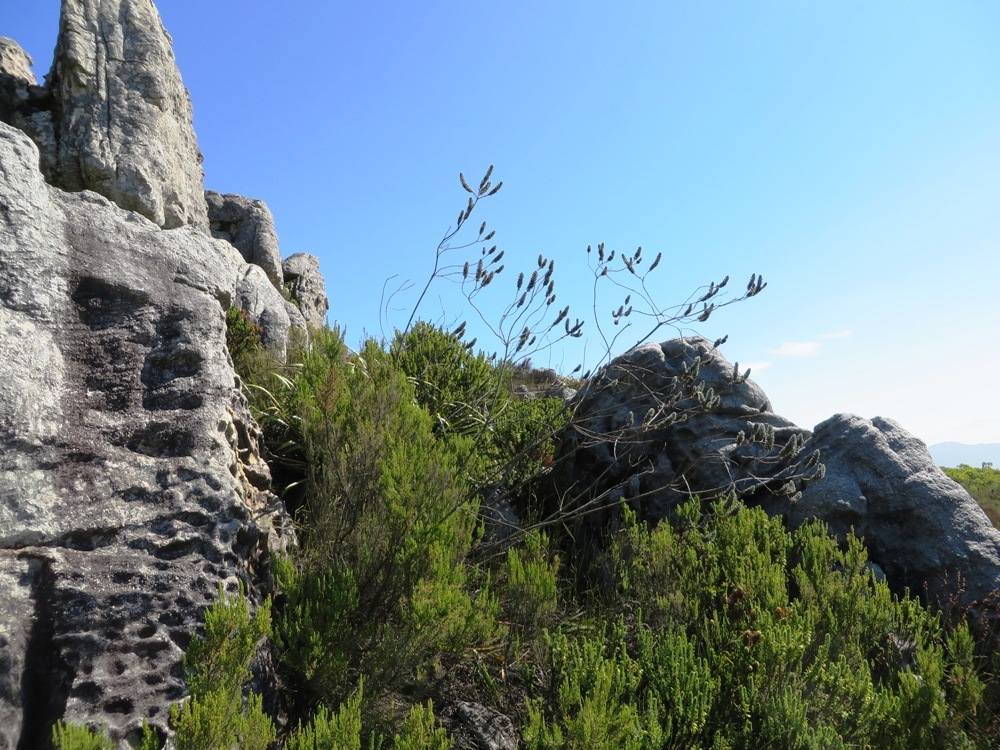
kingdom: Plantae
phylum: Tracheophyta
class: Magnoliopsida
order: Fabales
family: Fabaceae
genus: Liparia
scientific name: Liparia vestita
